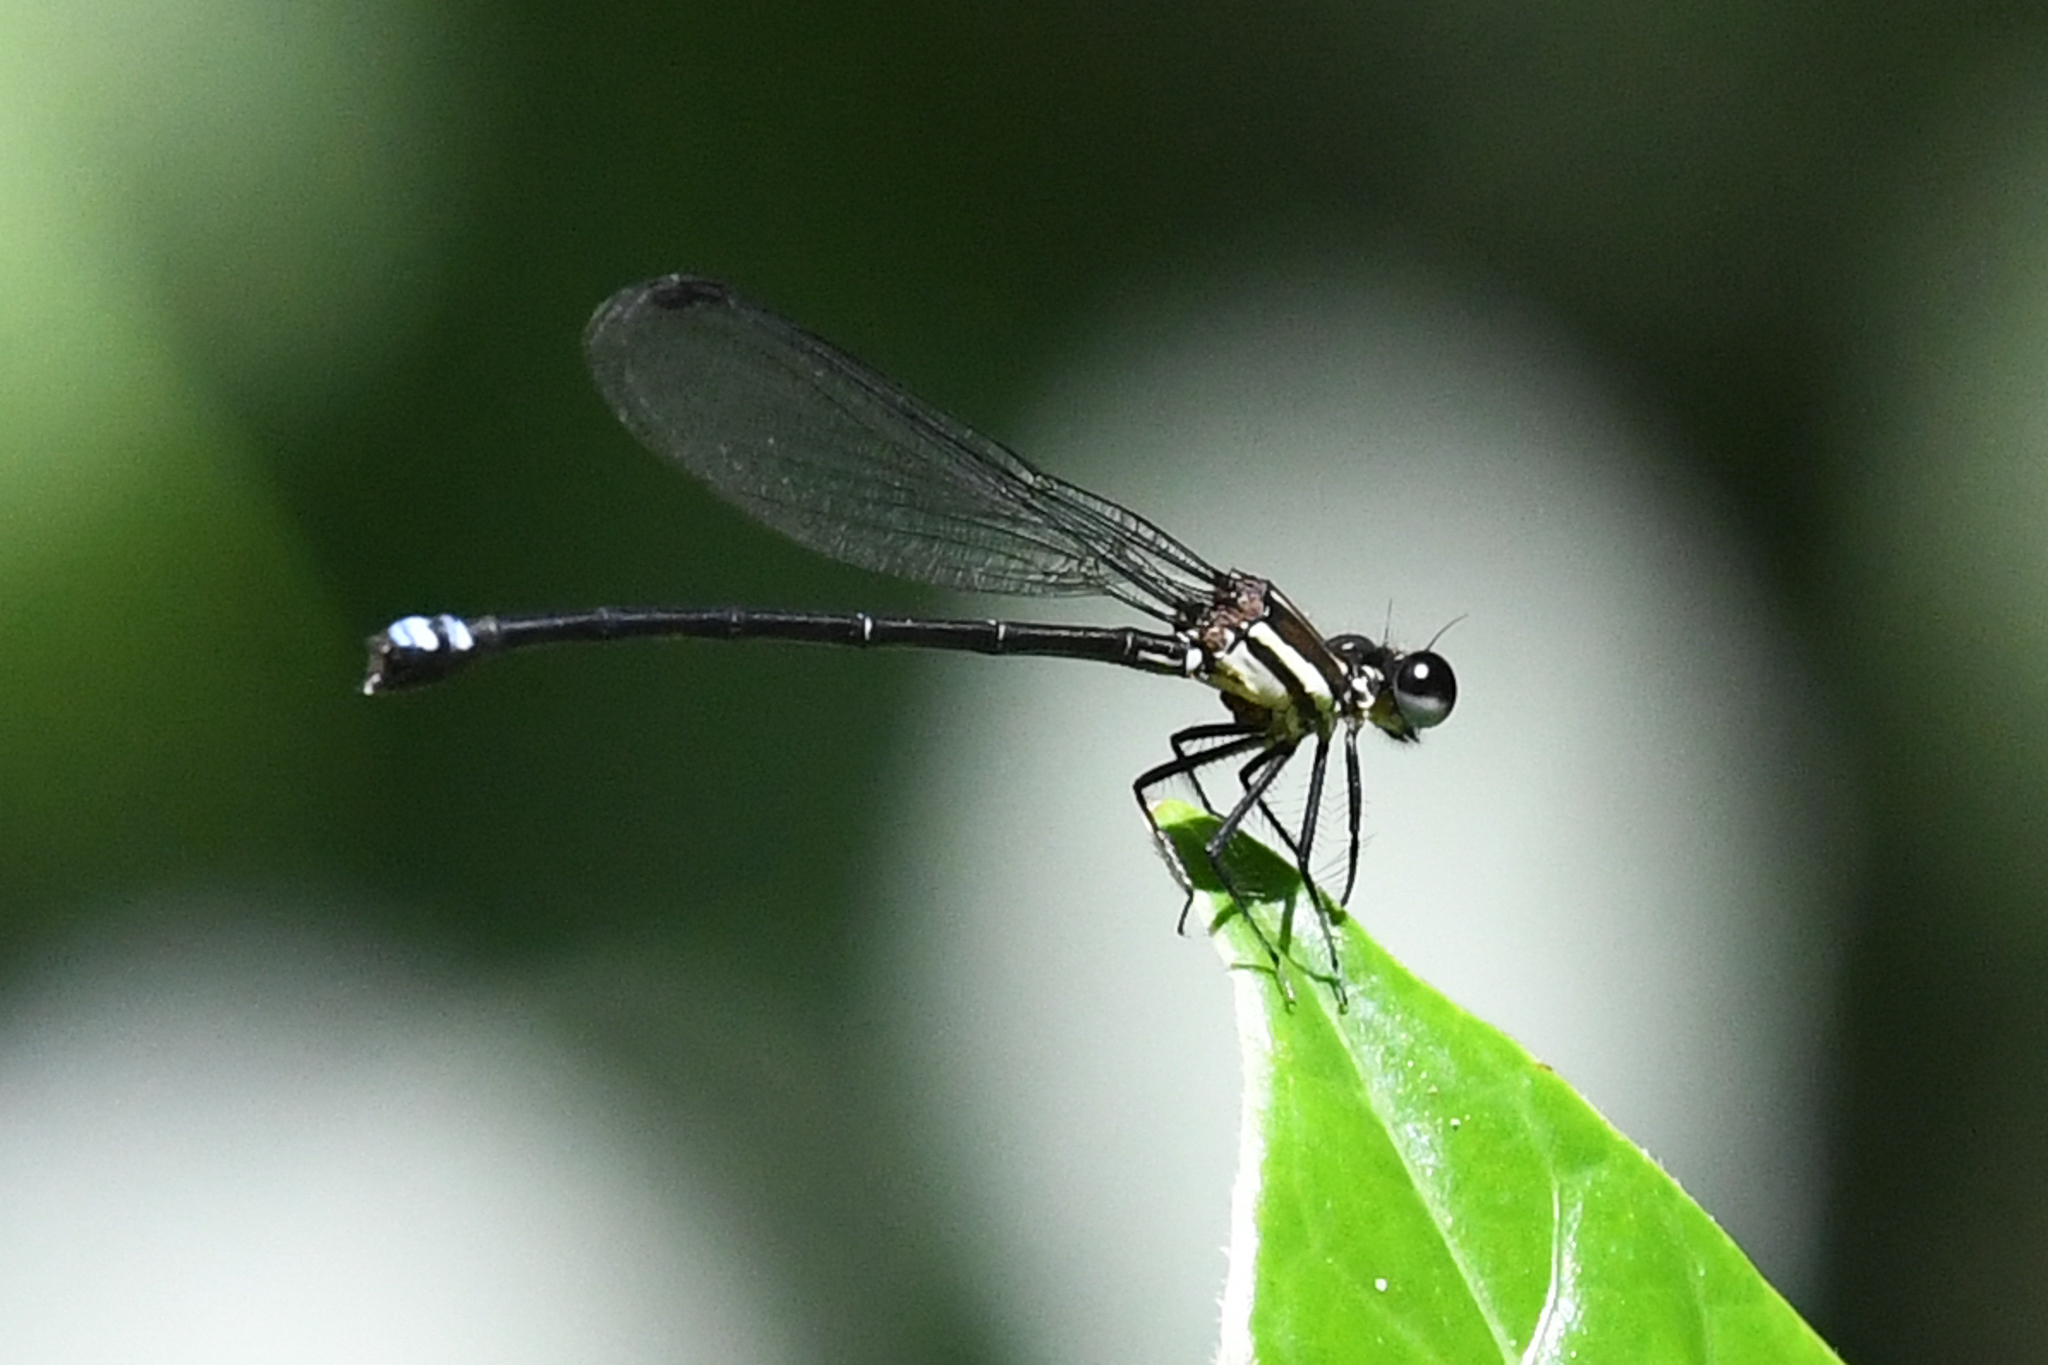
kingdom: Animalia
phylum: Arthropoda
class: Insecta
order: Odonata
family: Coenagrionidae
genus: Argia
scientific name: Argia adamsi
